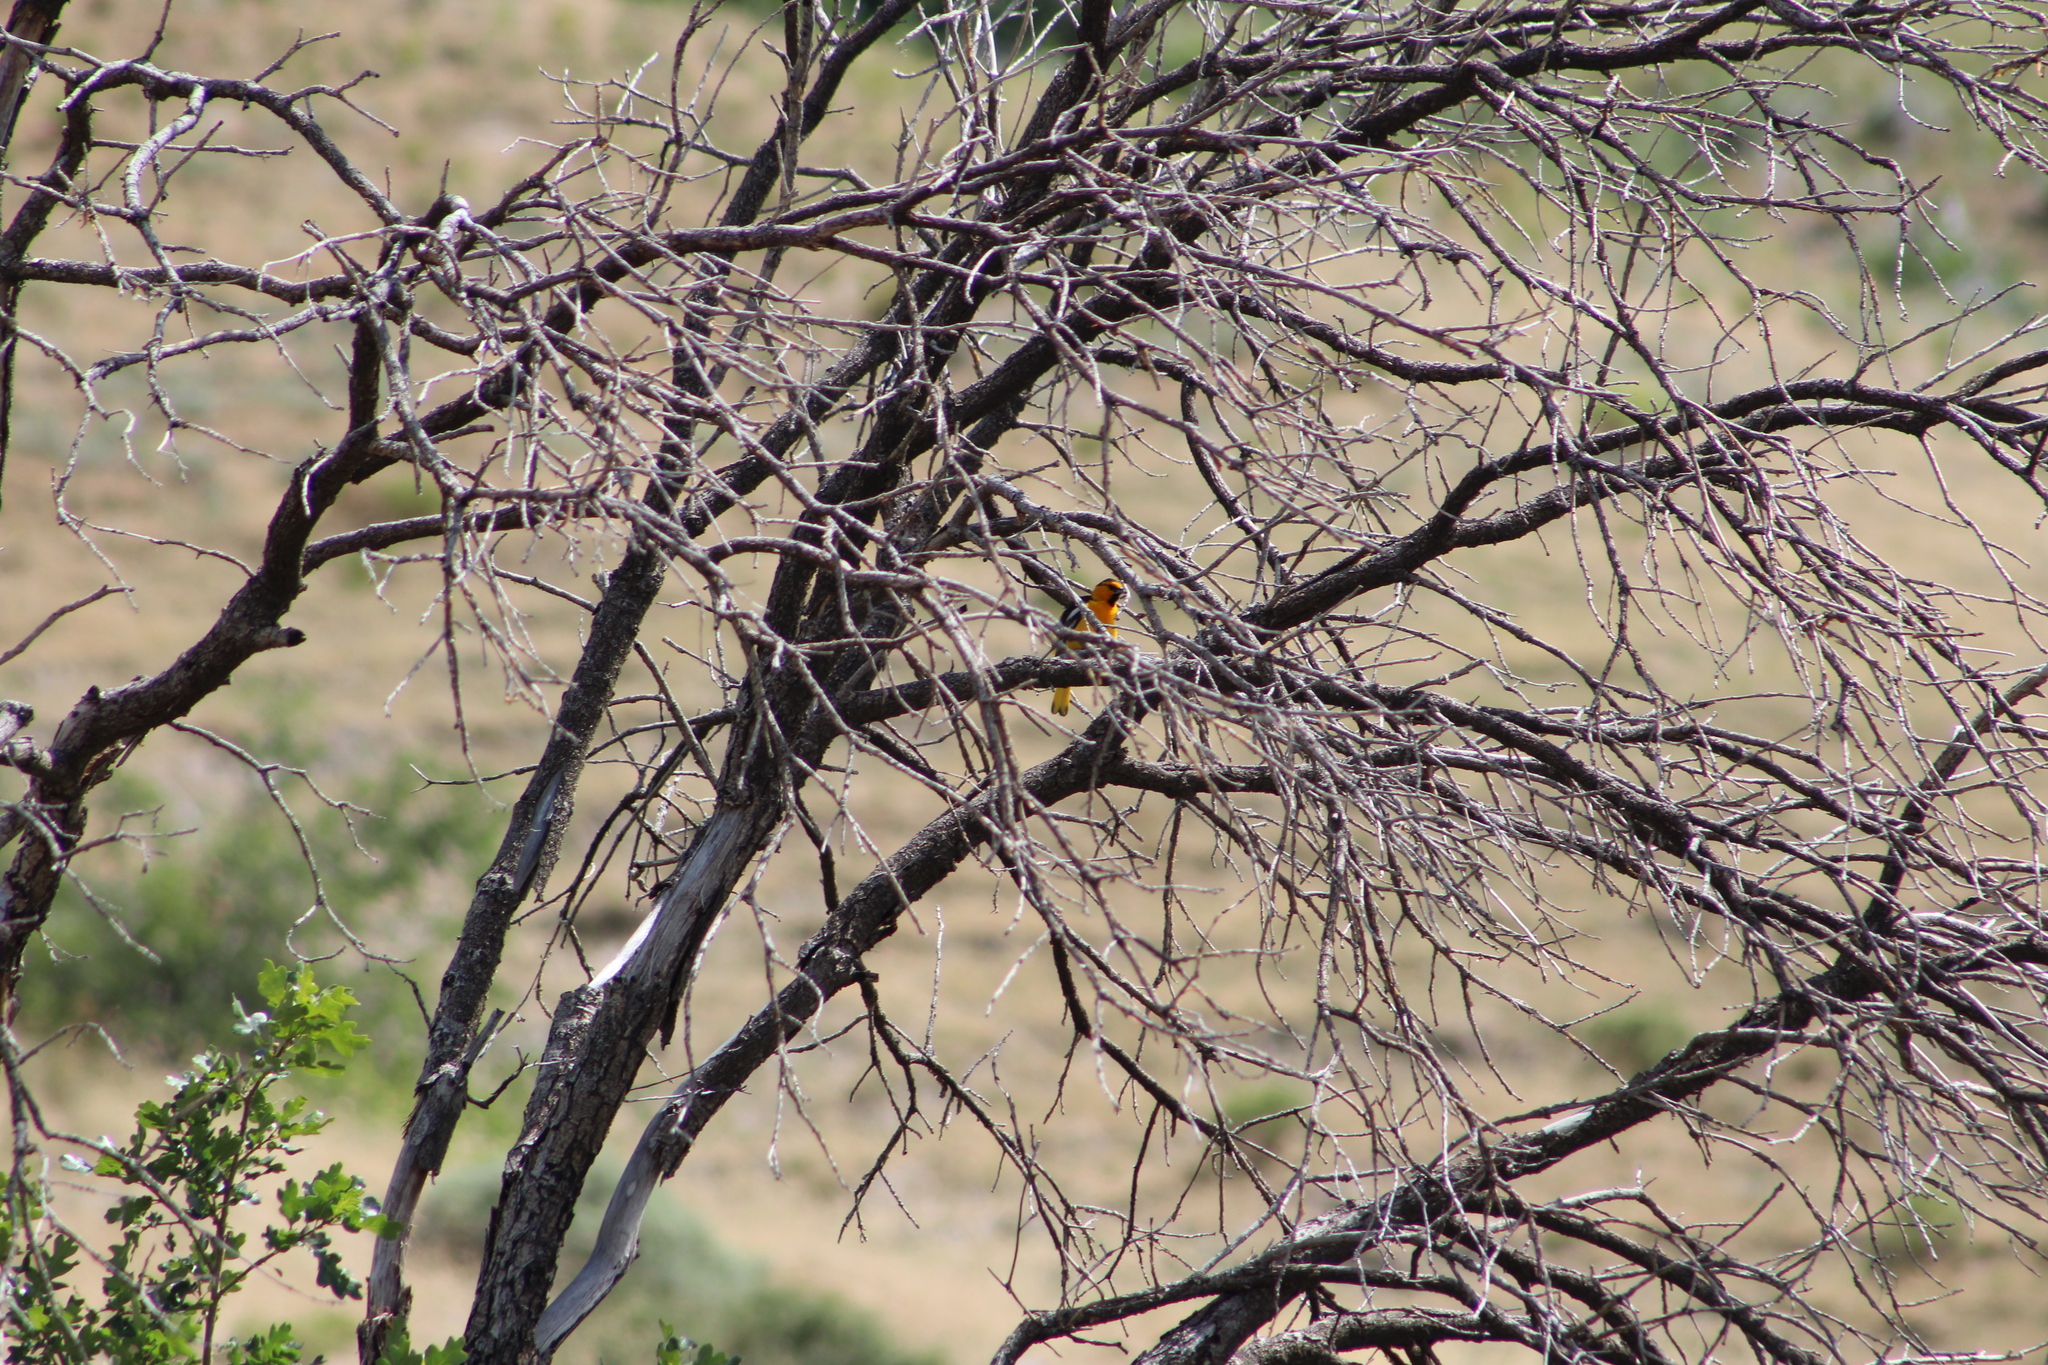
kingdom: Animalia
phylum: Chordata
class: Aves
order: Passeriformes
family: Icteridae
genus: Icterus
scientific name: Icterus bullockii
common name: Bullock's oriole
